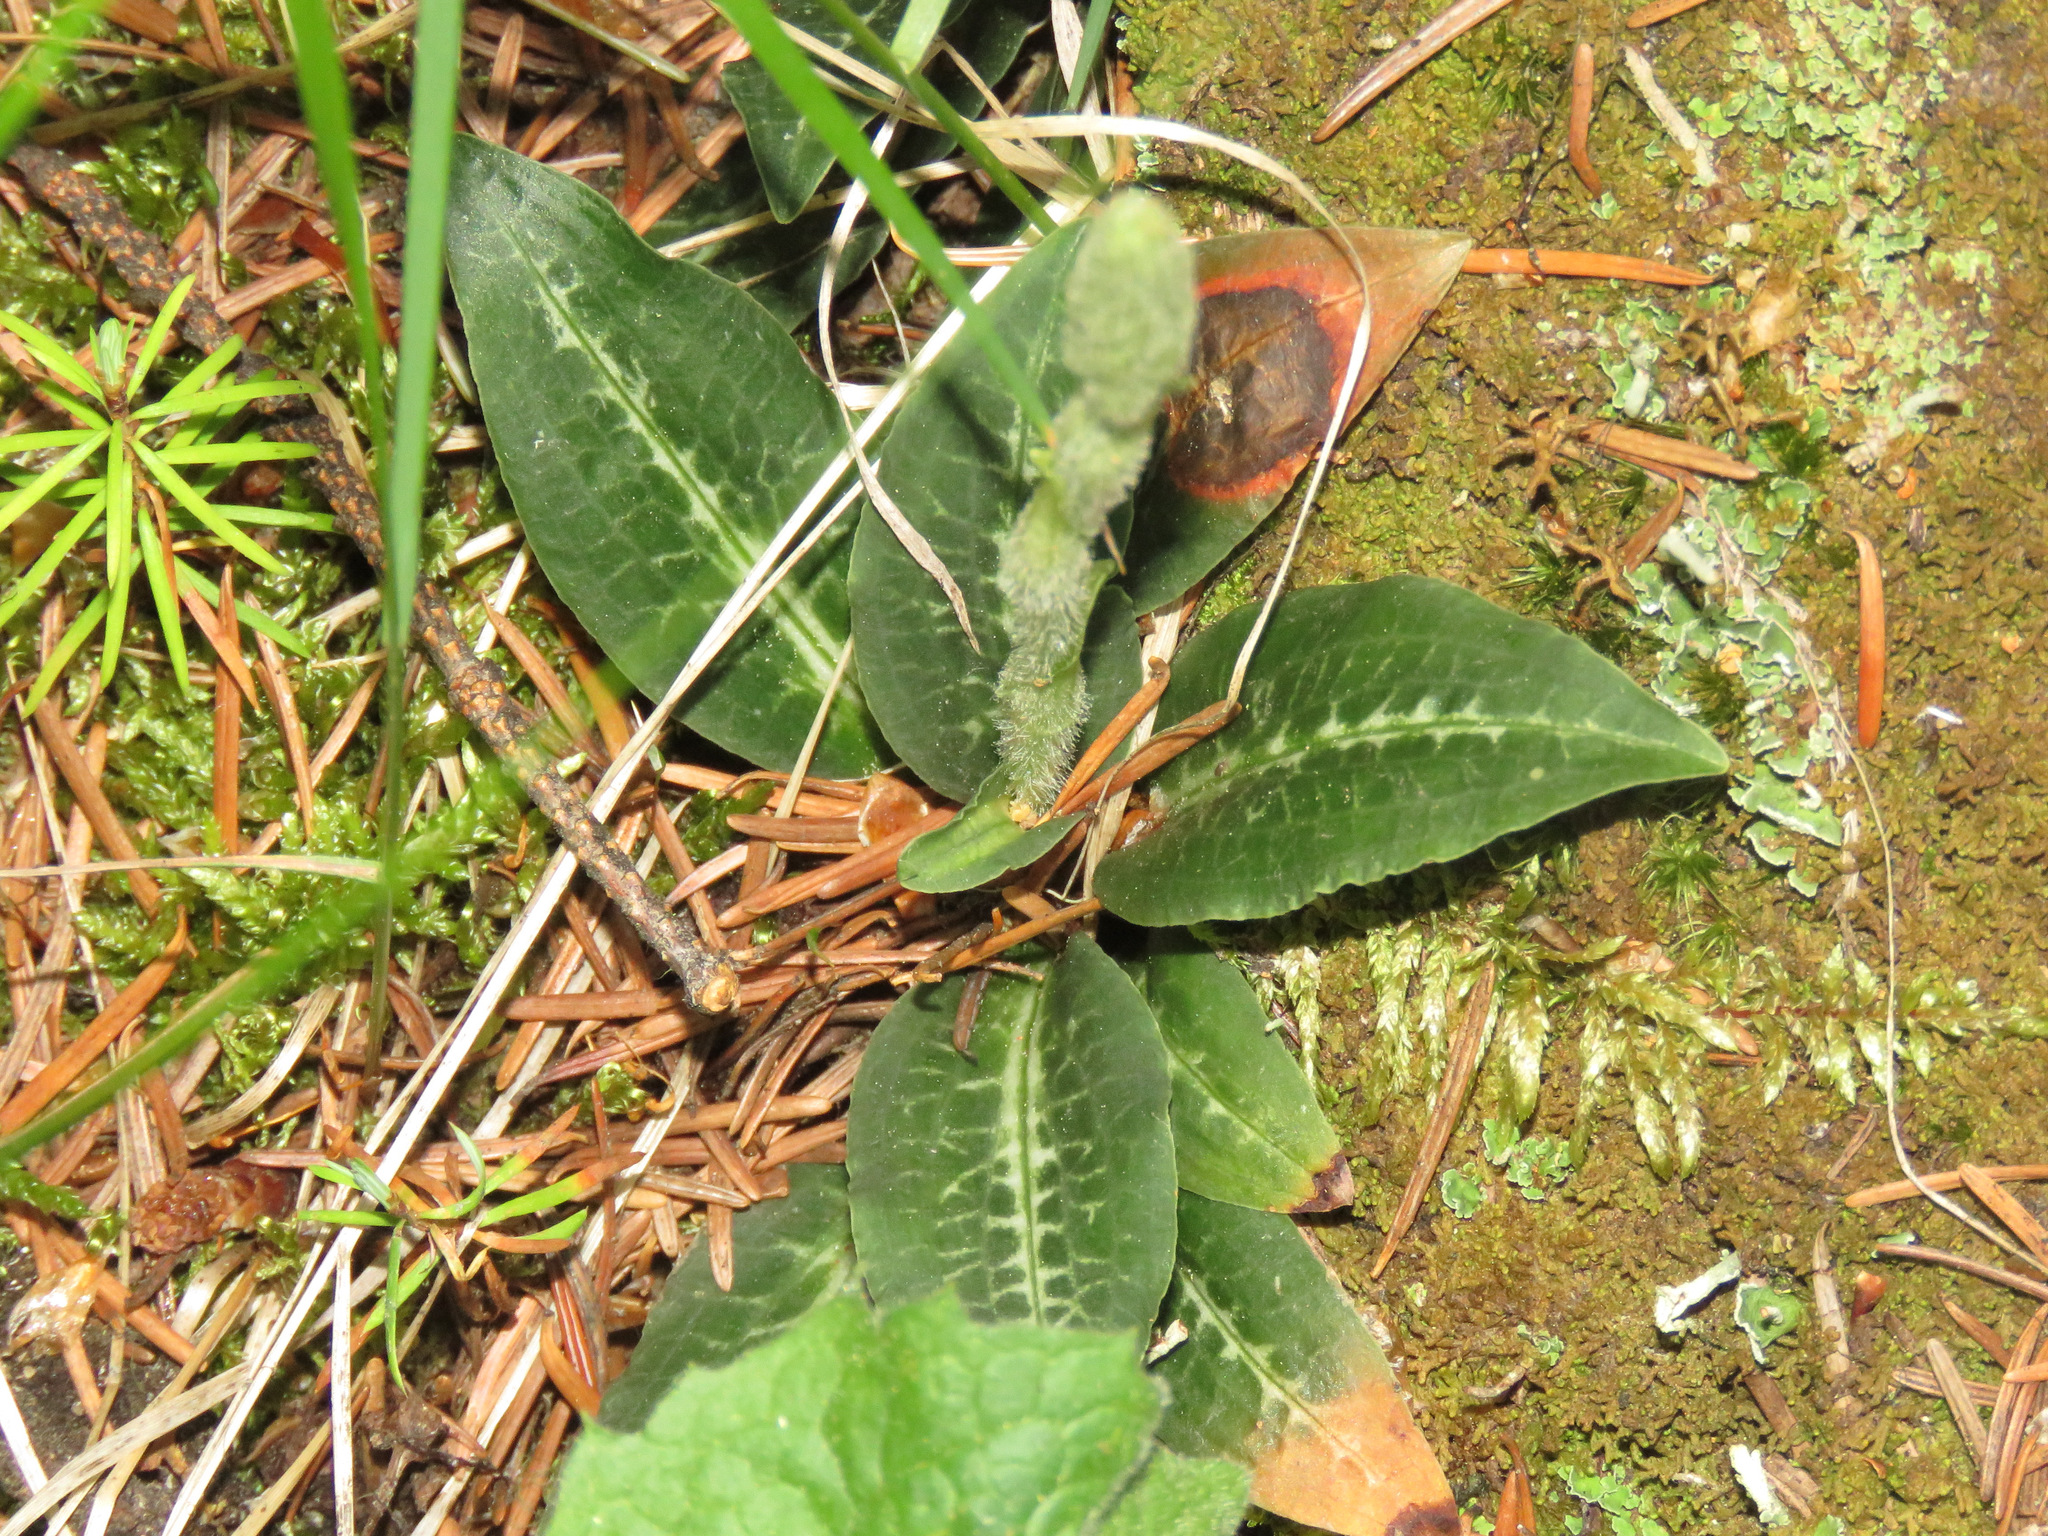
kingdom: Plantae
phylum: Tracheophyta
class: Liliopsida
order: Asparagales
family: Orchidaceae
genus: Goodyera
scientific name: Goodyera oblongifolia
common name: Giant rattlesnake-plantain
